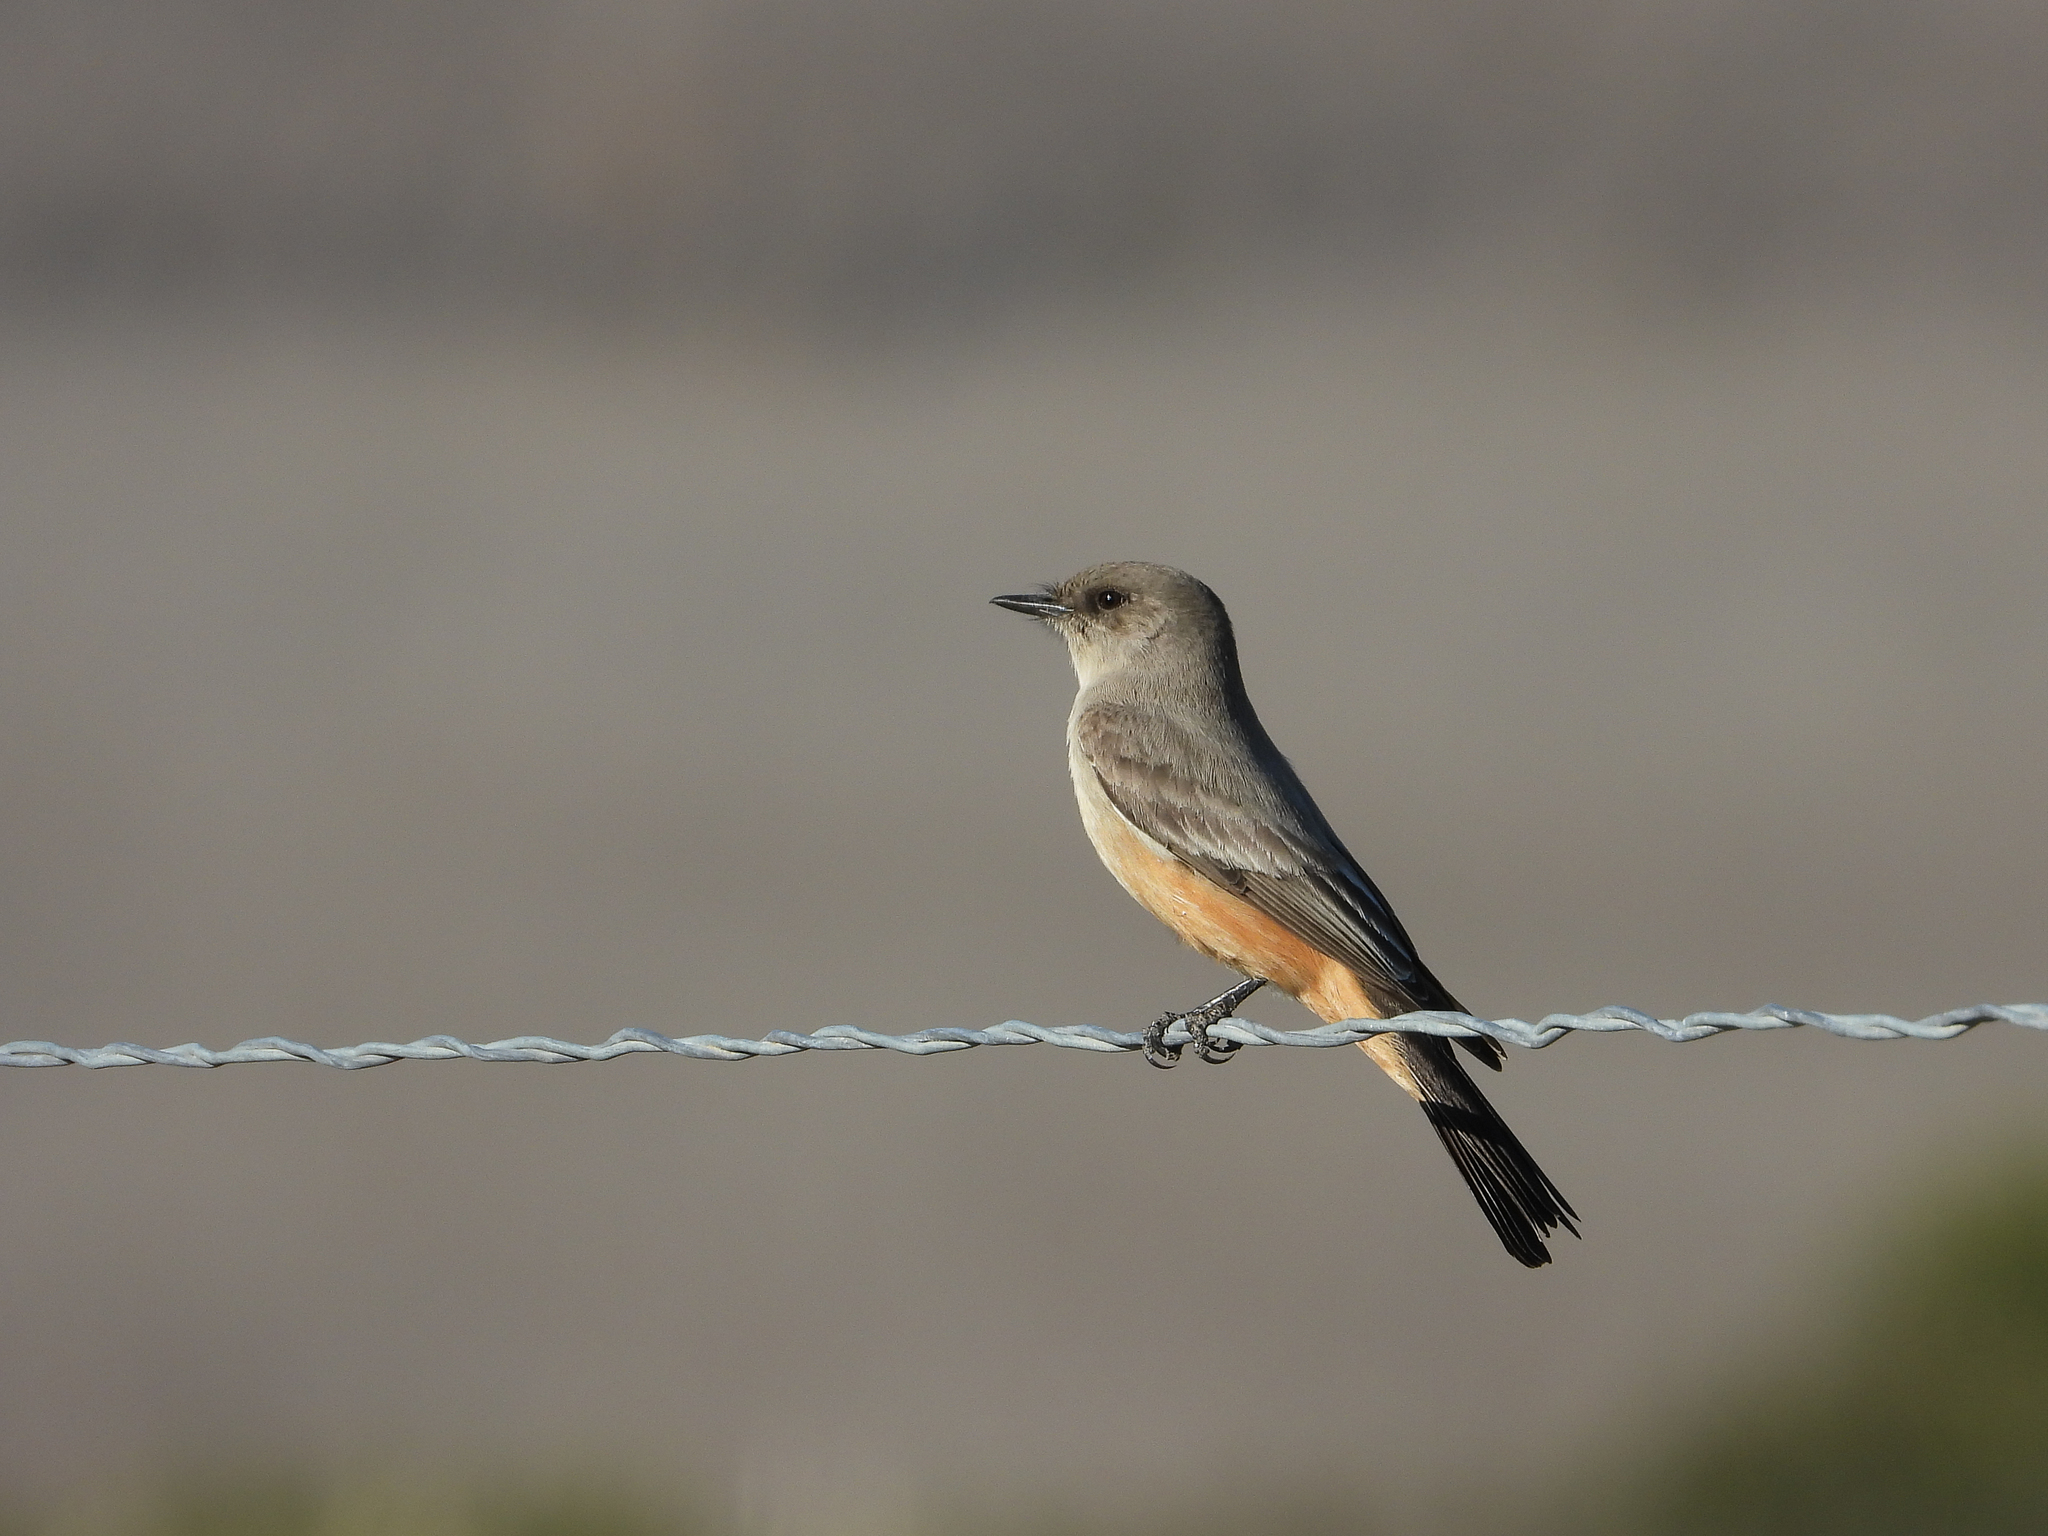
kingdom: Animalia
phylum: Chordata
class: Aves
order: Passeriformes
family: Tyrannidae
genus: Sayornis
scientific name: Sayornis saya
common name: Say's phoebe
